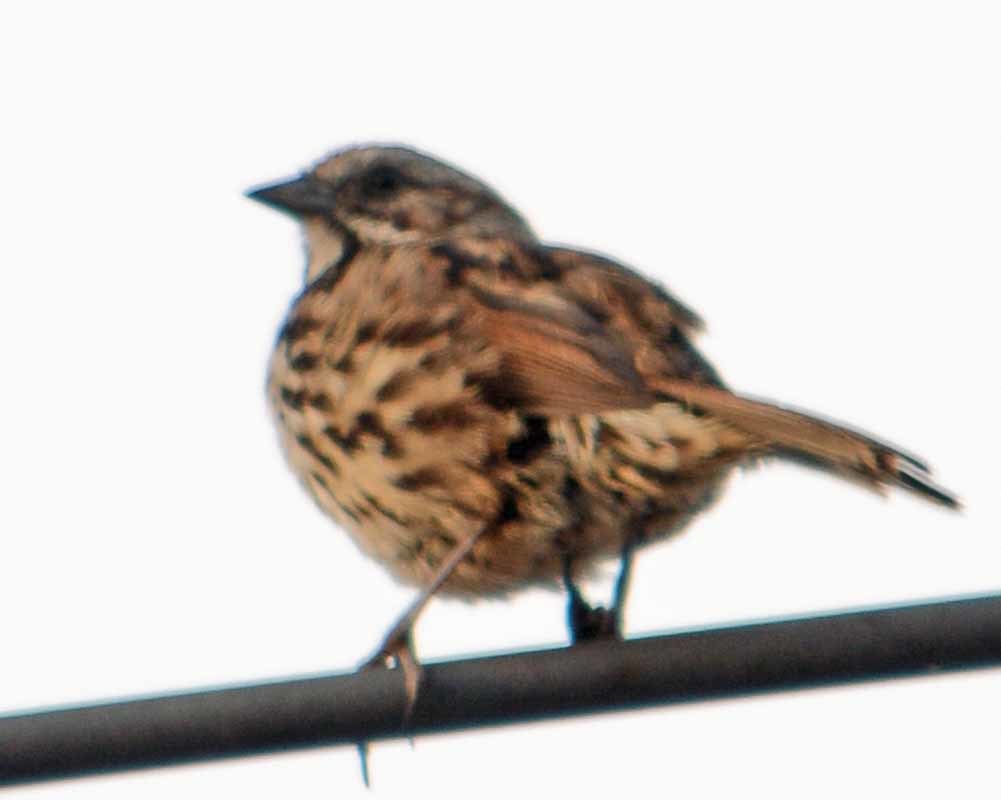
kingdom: Animalia
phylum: Chordata
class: Aves
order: Passeriformes
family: Passerellidae
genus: Melospiza
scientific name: Melospiza melodia
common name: Song sparrow
